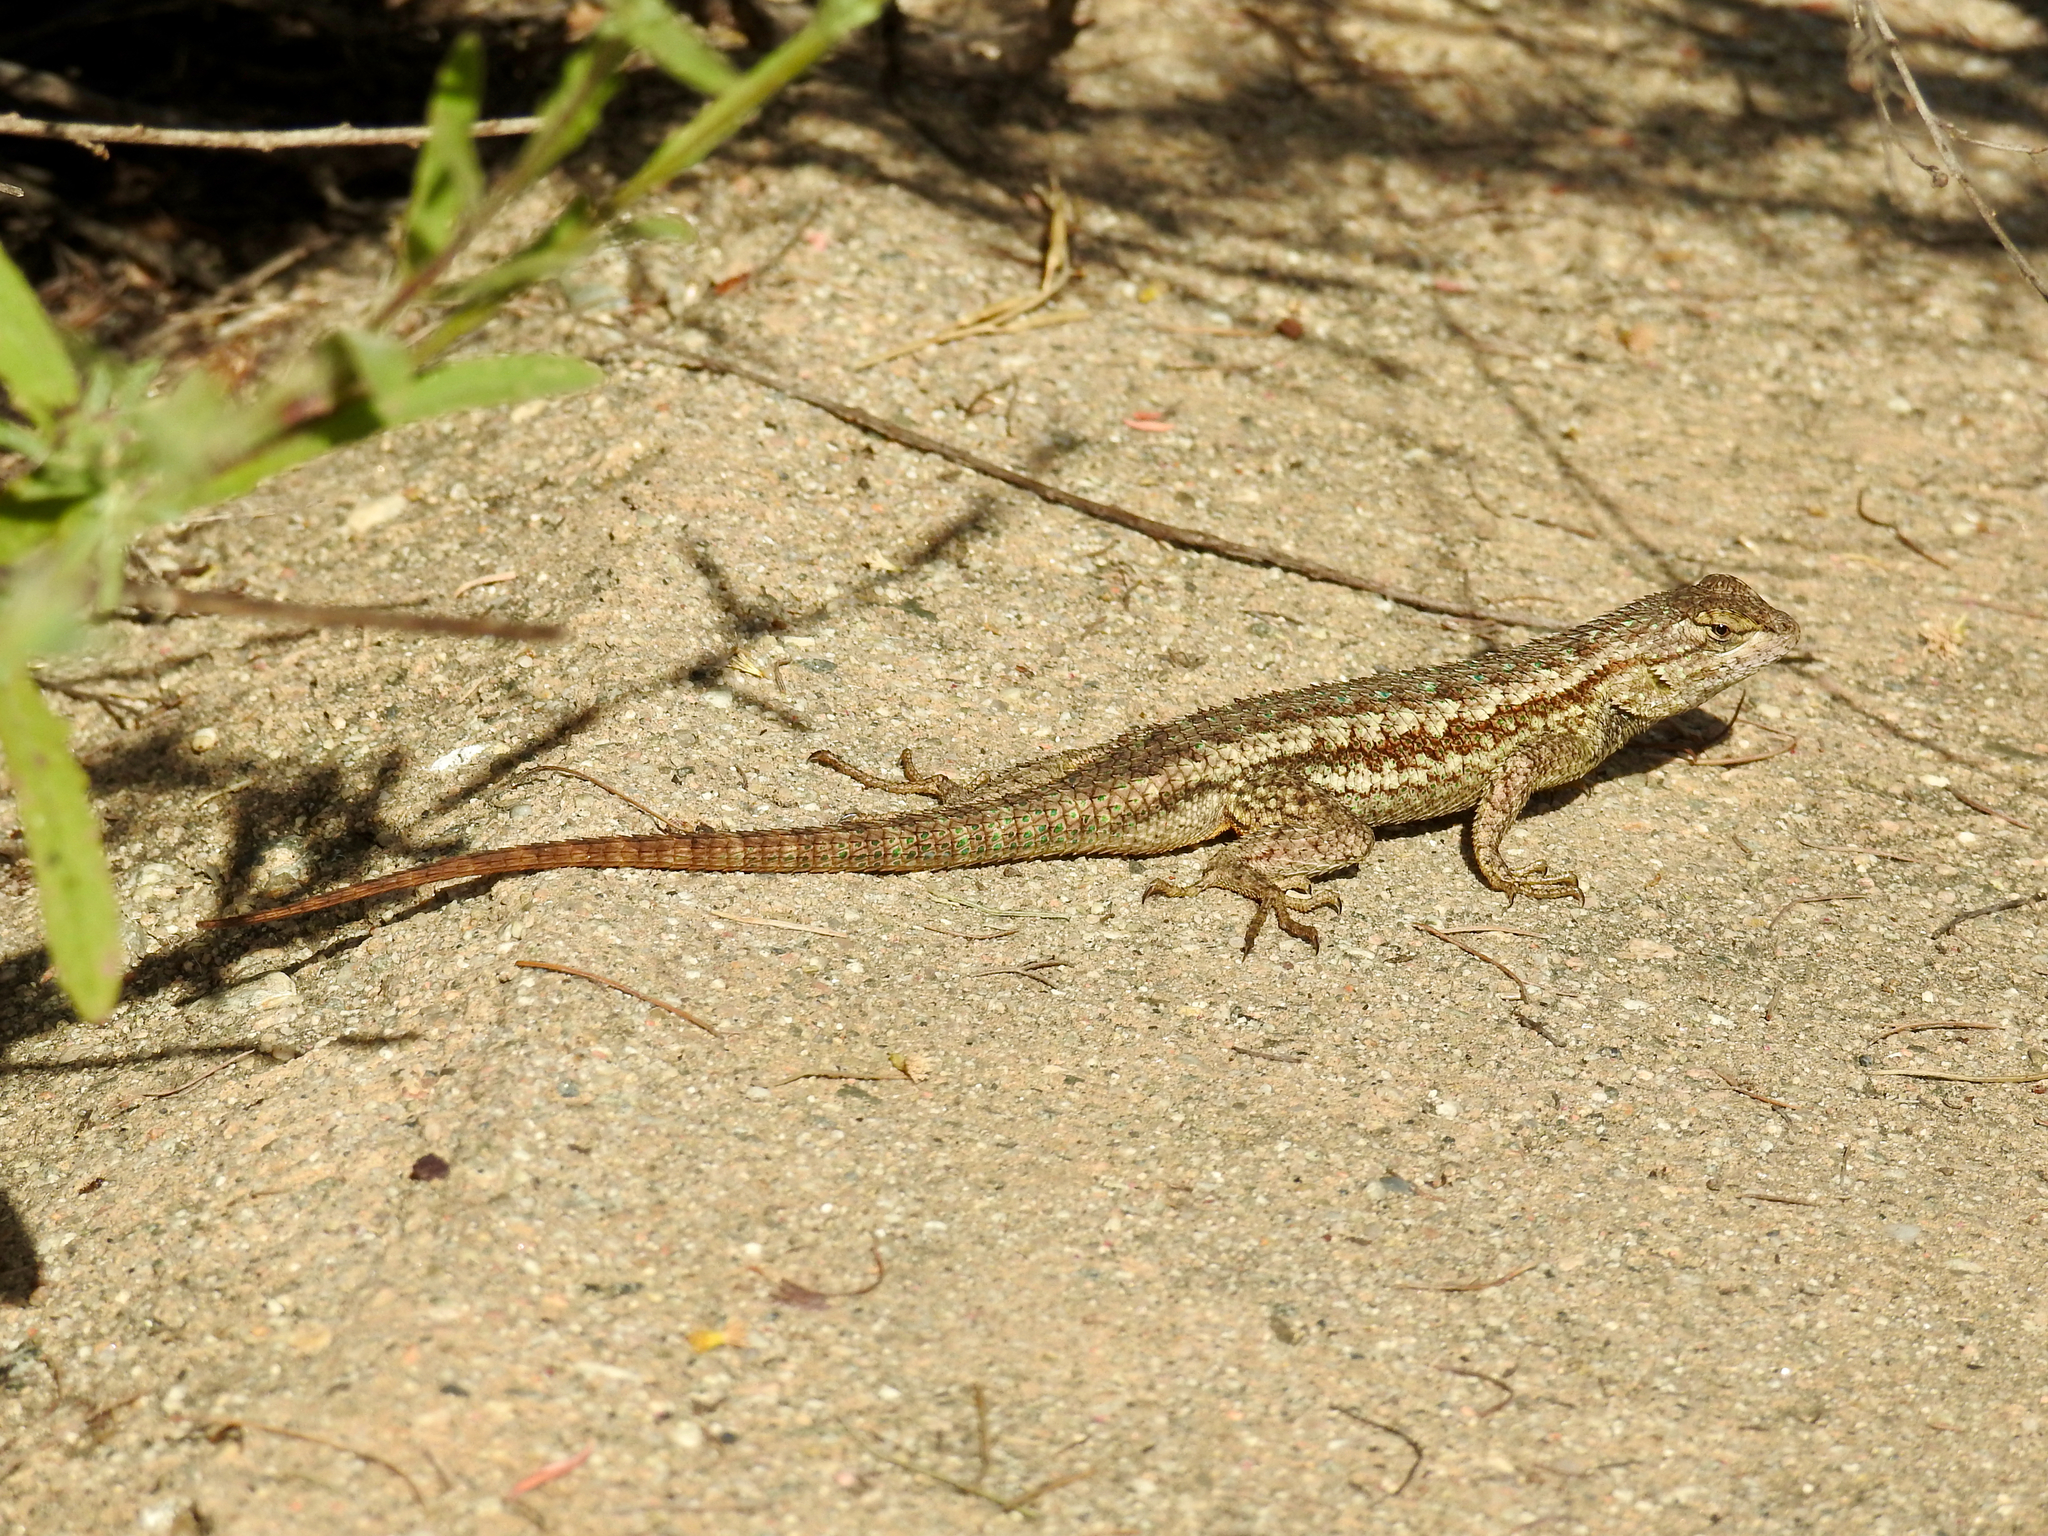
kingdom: Animalia
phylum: Chordata
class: Squamata
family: Phrynosomatidae
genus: Sceloporus
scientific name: Sceloporus occidentalis
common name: Western fence lizard
